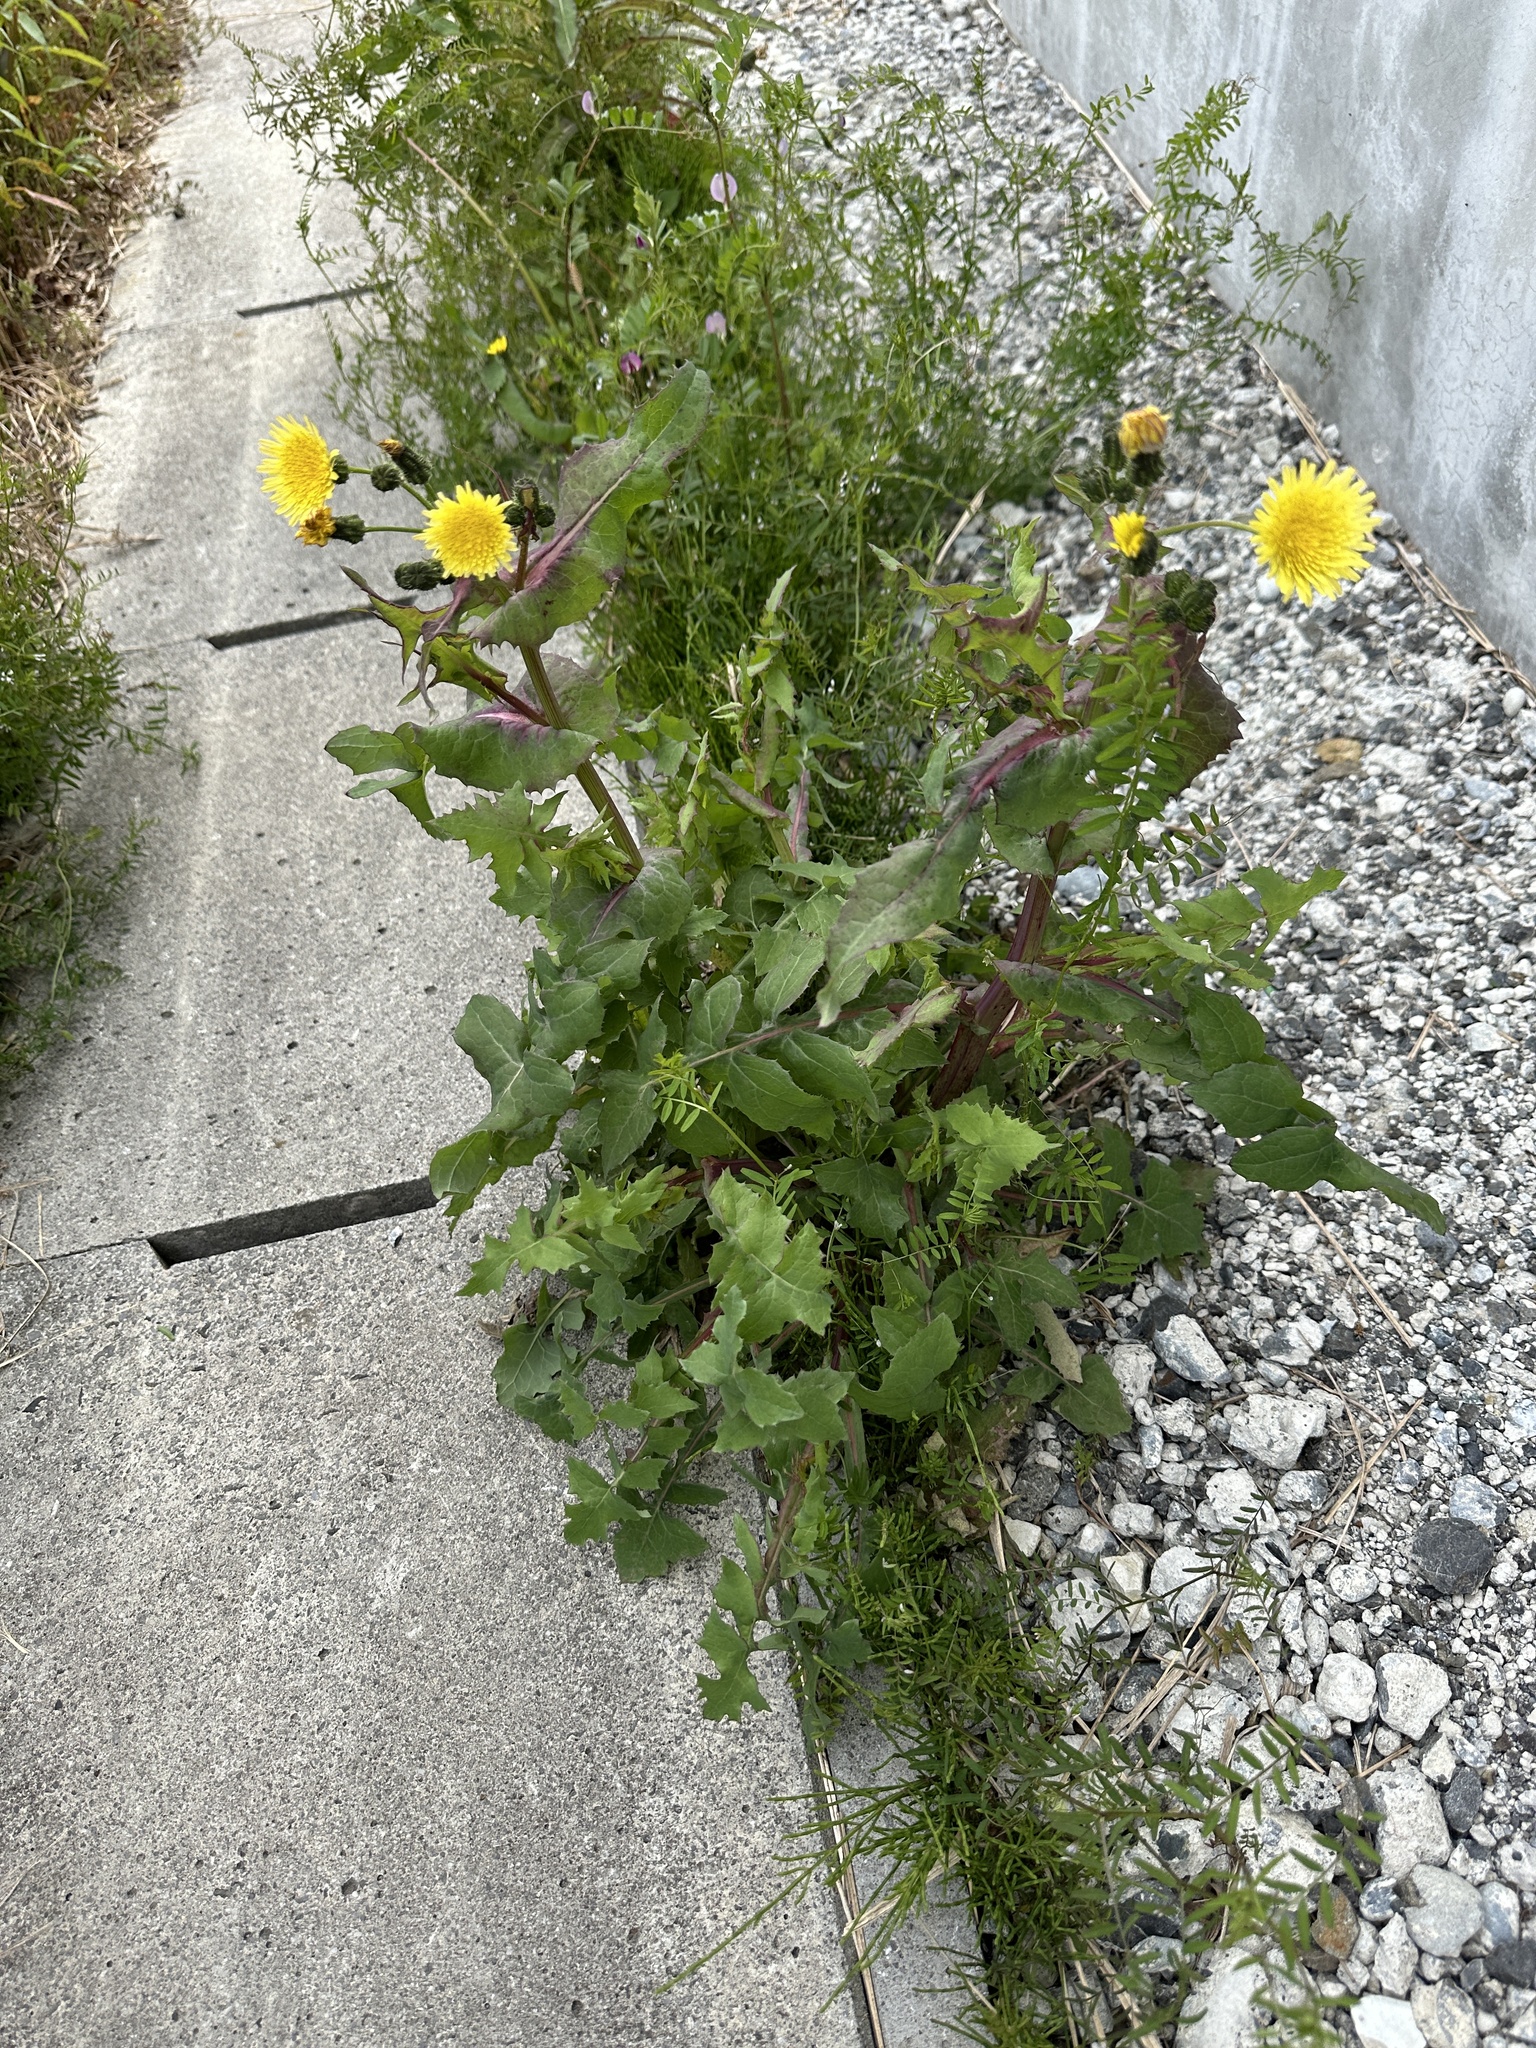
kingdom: Plantae
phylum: Tracheophyta
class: Magnoliopsida
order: Asterales
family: Asteraceae
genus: Sonchus
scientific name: Sonchus oleraceus
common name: Common sowthistle
